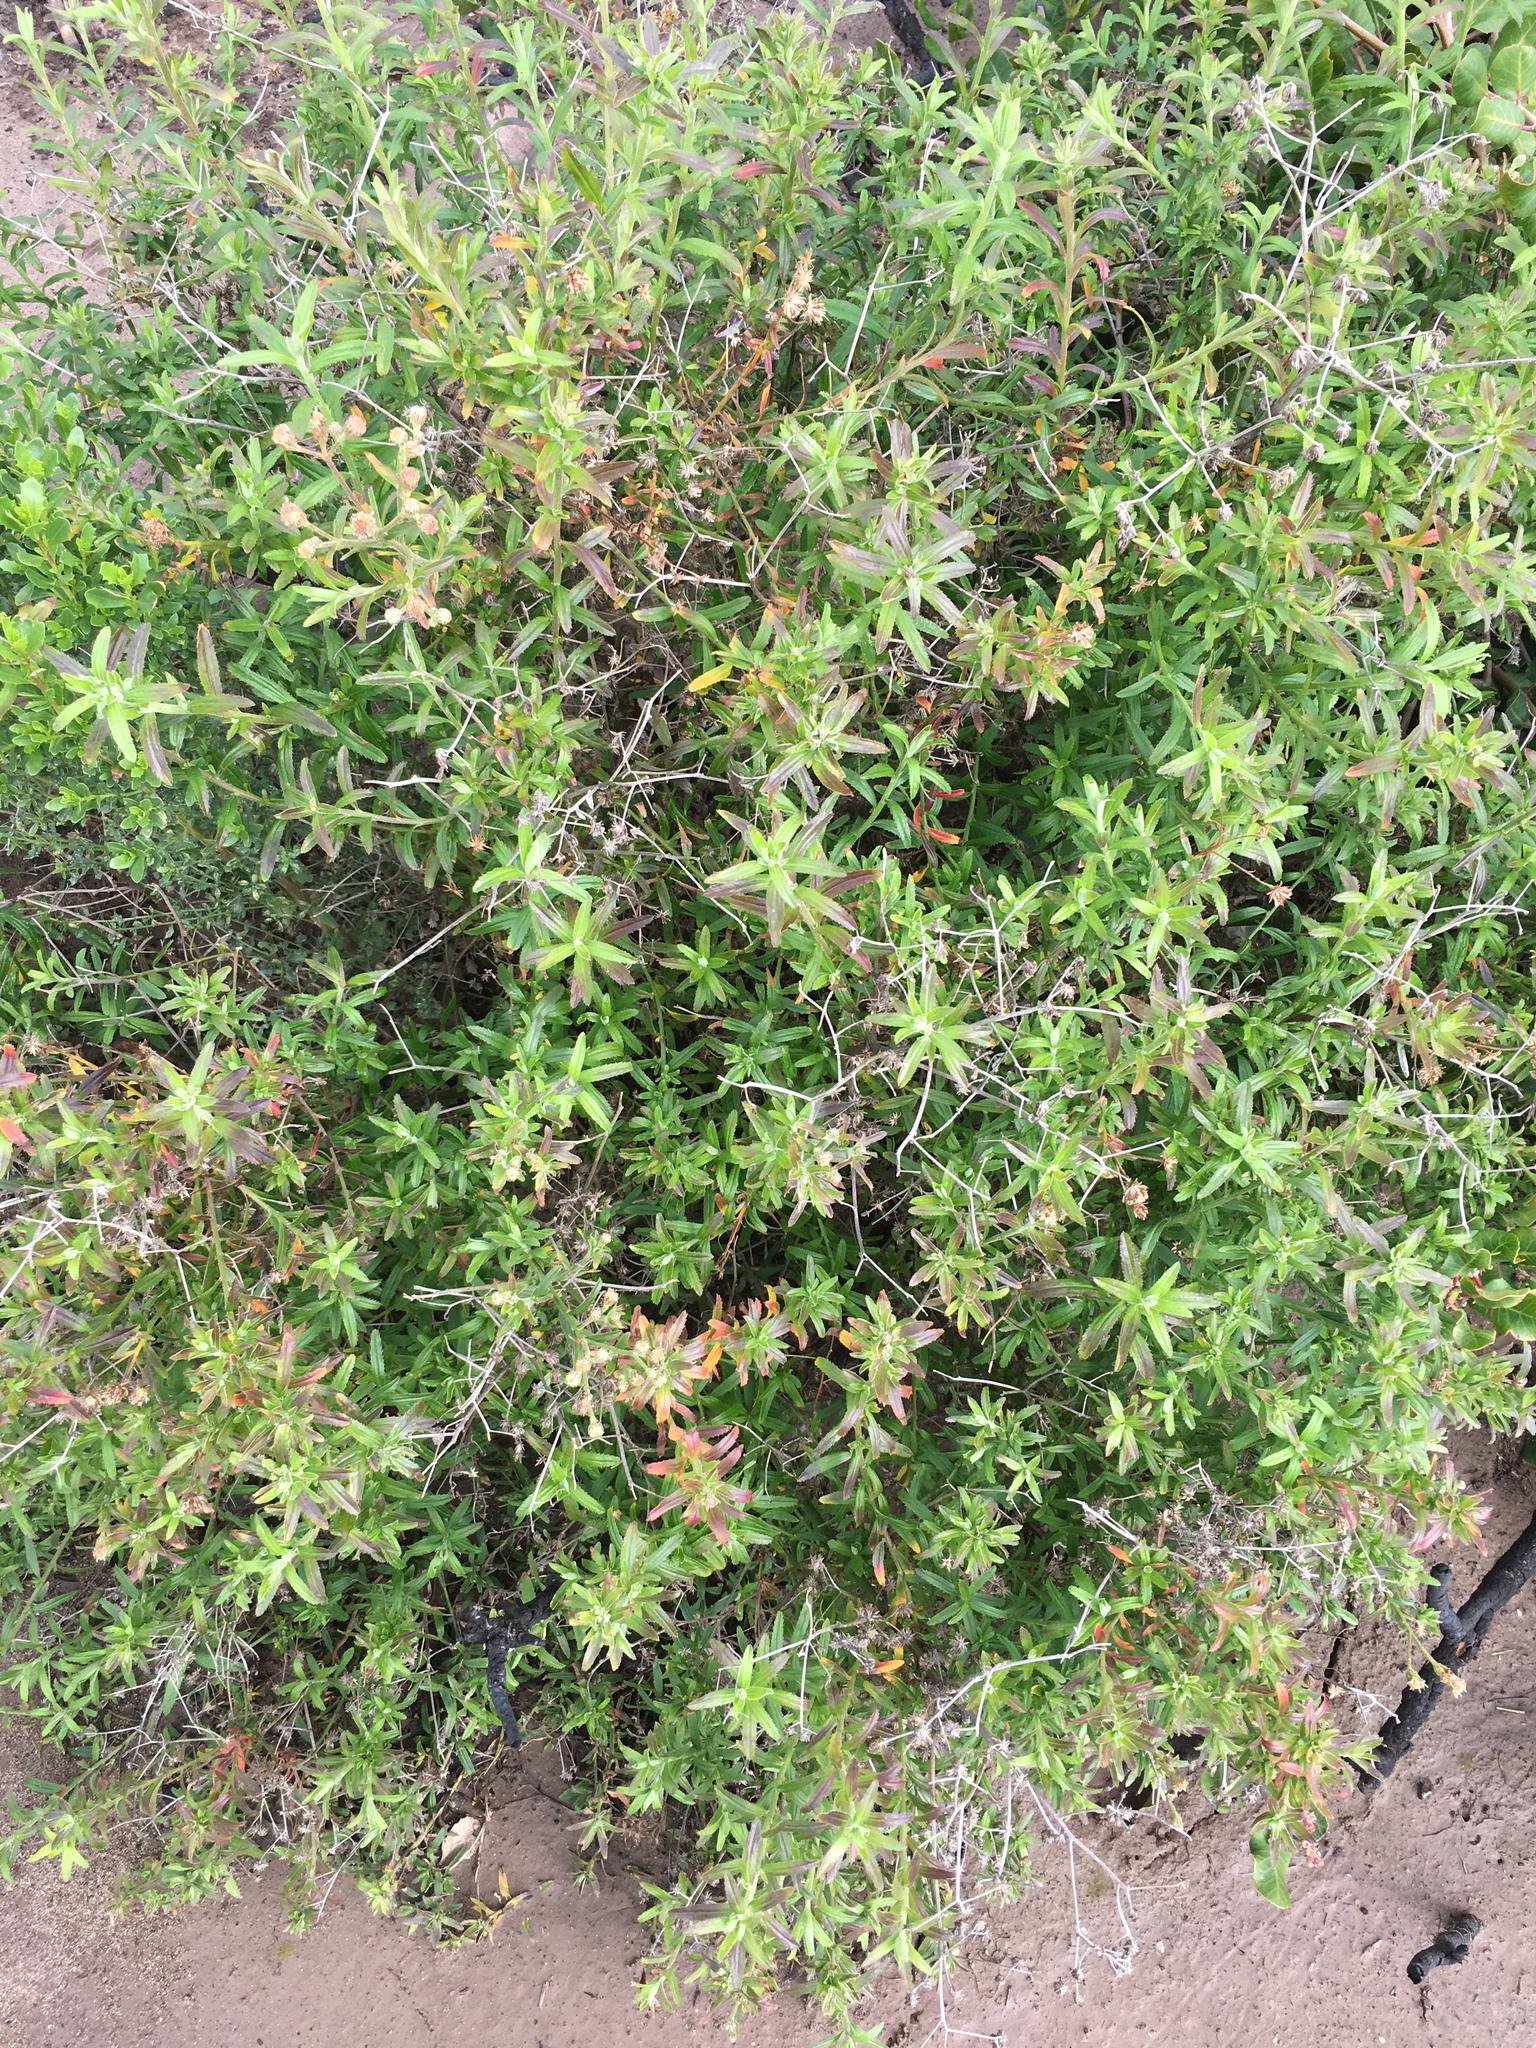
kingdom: Plantae
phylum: Tracheophyta
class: Magnoliopsida
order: Asterales
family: Asteraceae
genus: Baccharis
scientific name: Baccharis plummerae
